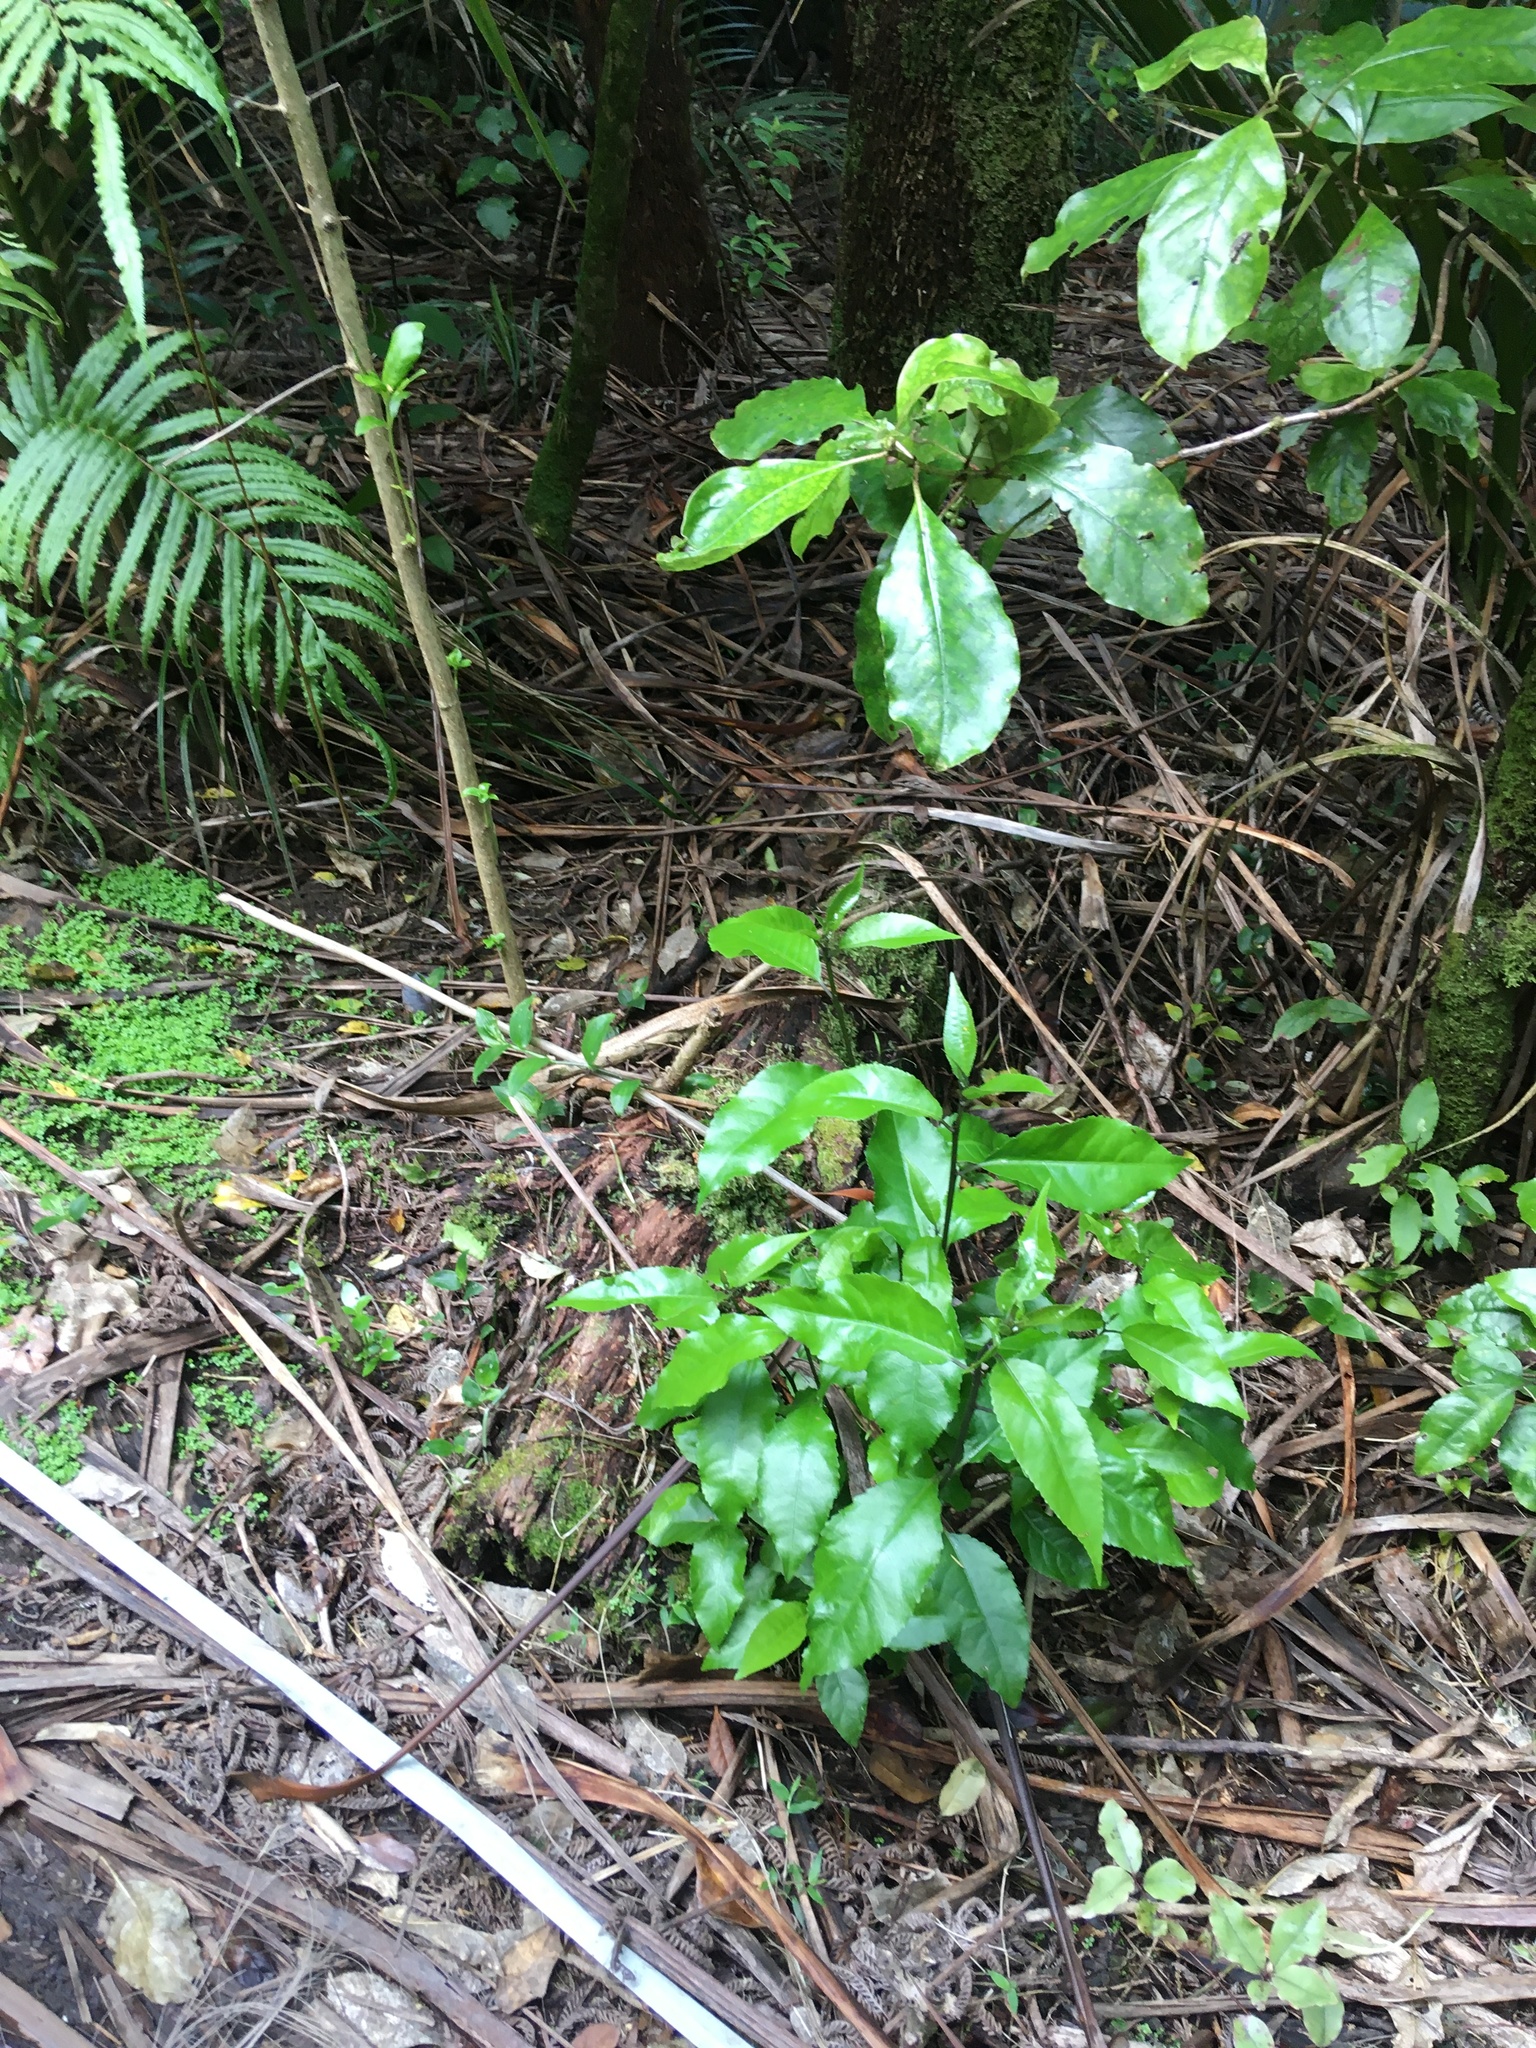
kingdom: Plantae
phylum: Tracheophyta
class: Magnoliopsida
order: Gentianales
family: Rubiaceae
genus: Coprosma
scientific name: Coprosma autumnalis
